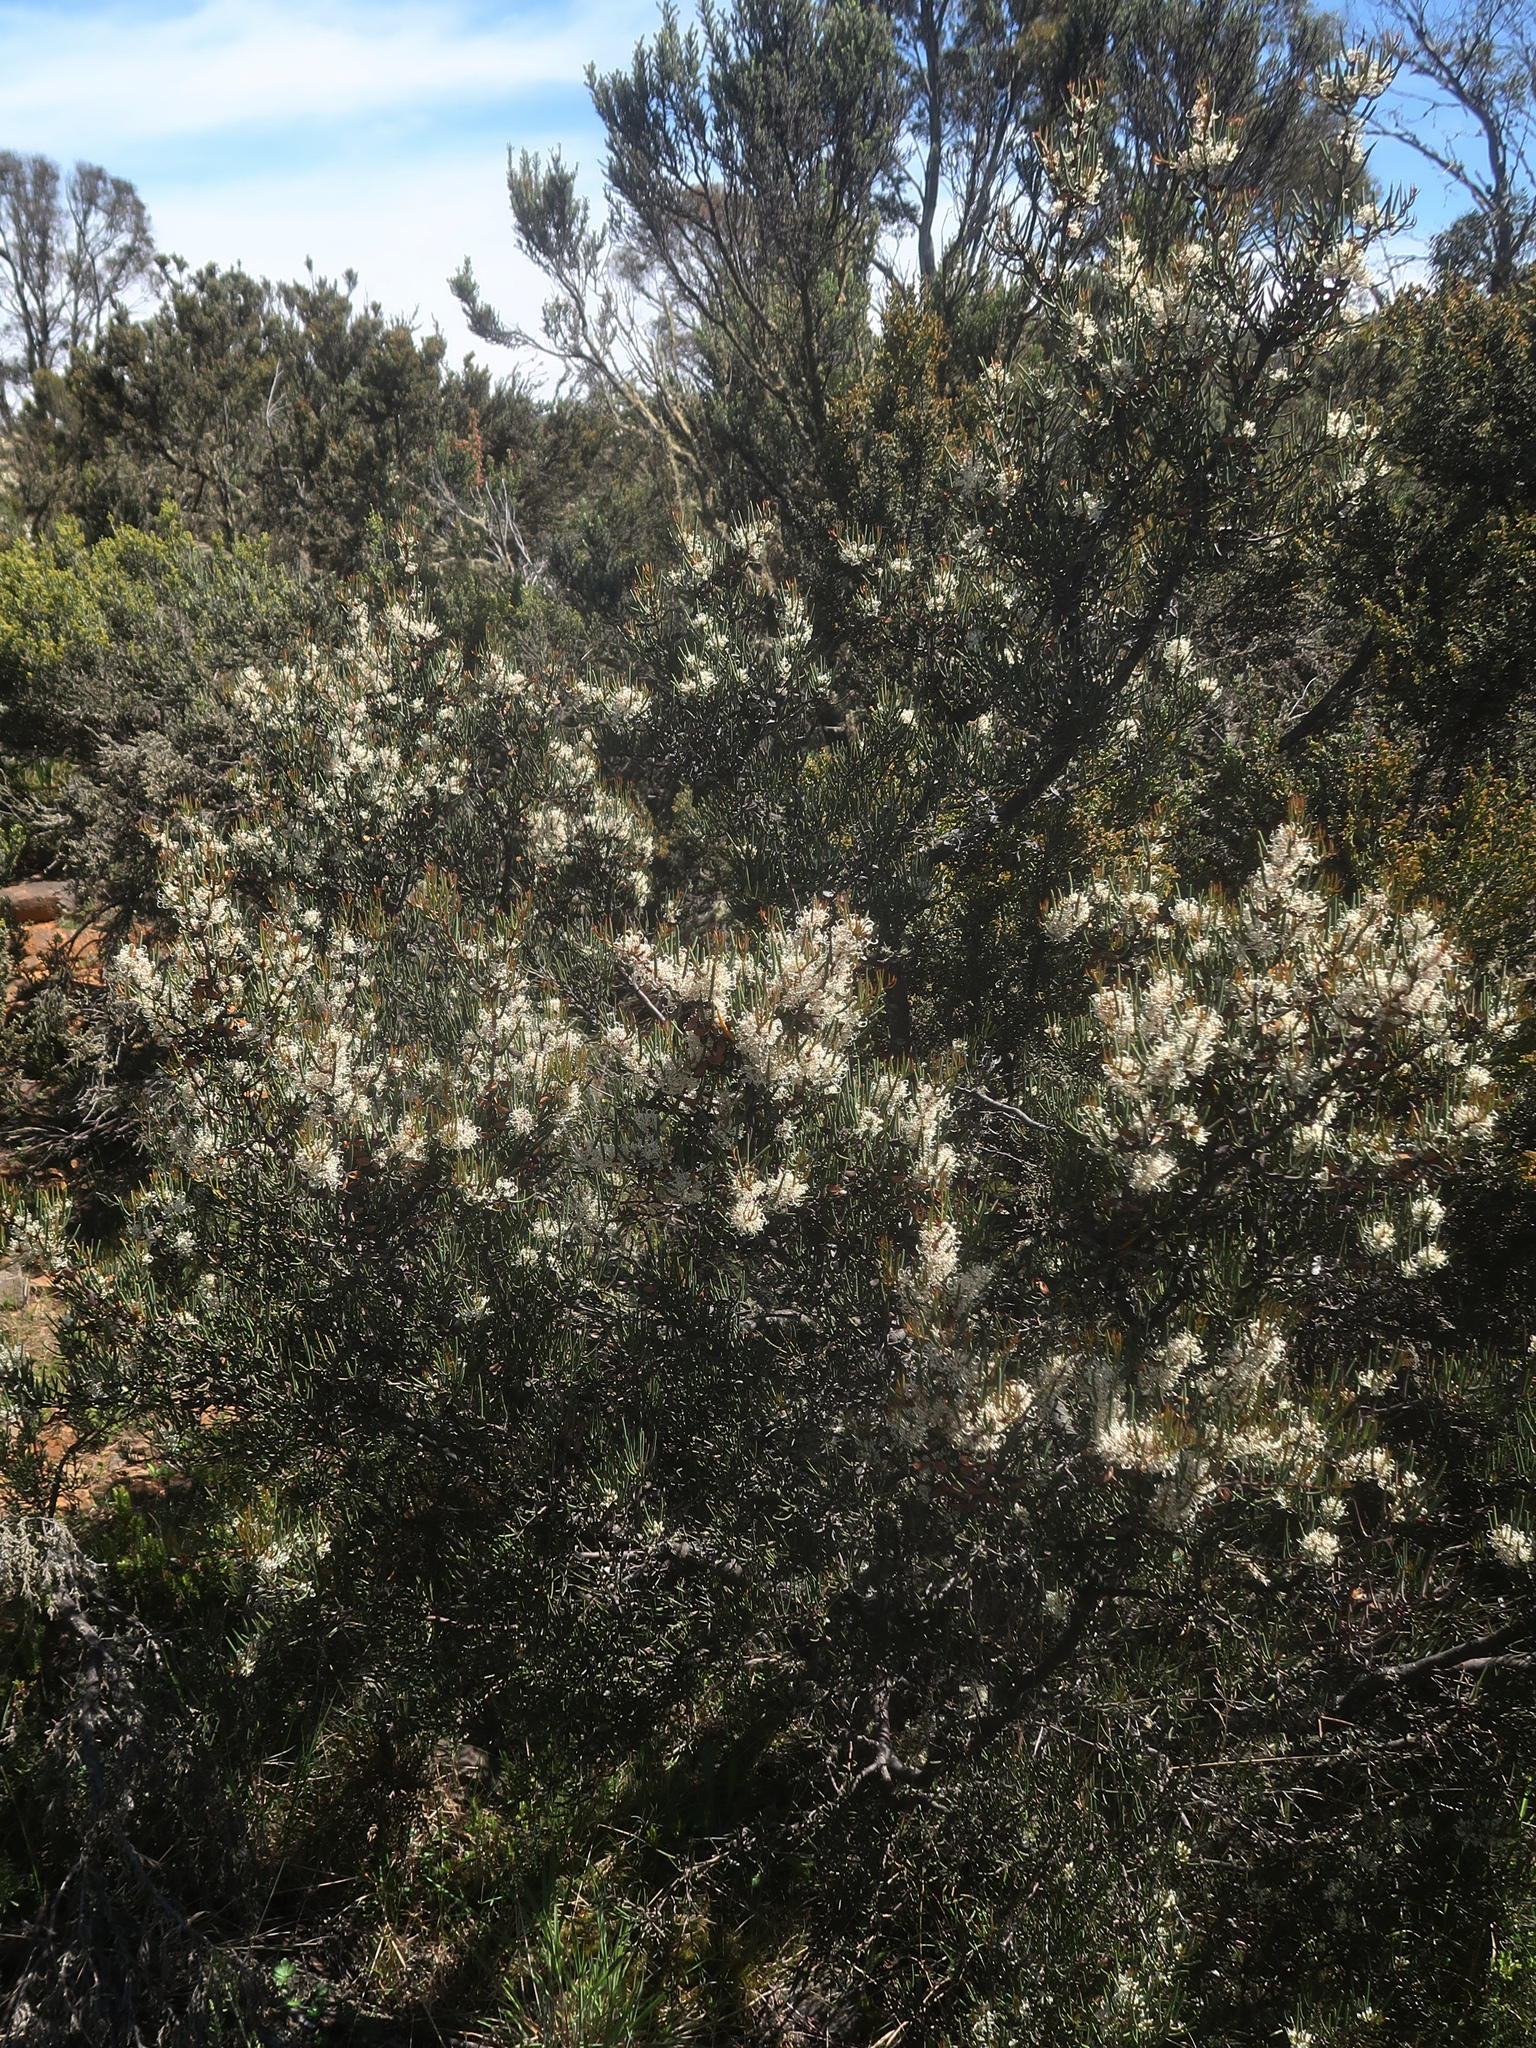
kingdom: Plantae
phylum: Tracheophyta
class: Magnoliopsida
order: Proteales
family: Proteaceae
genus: Hakea
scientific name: Hakea microcarpa
